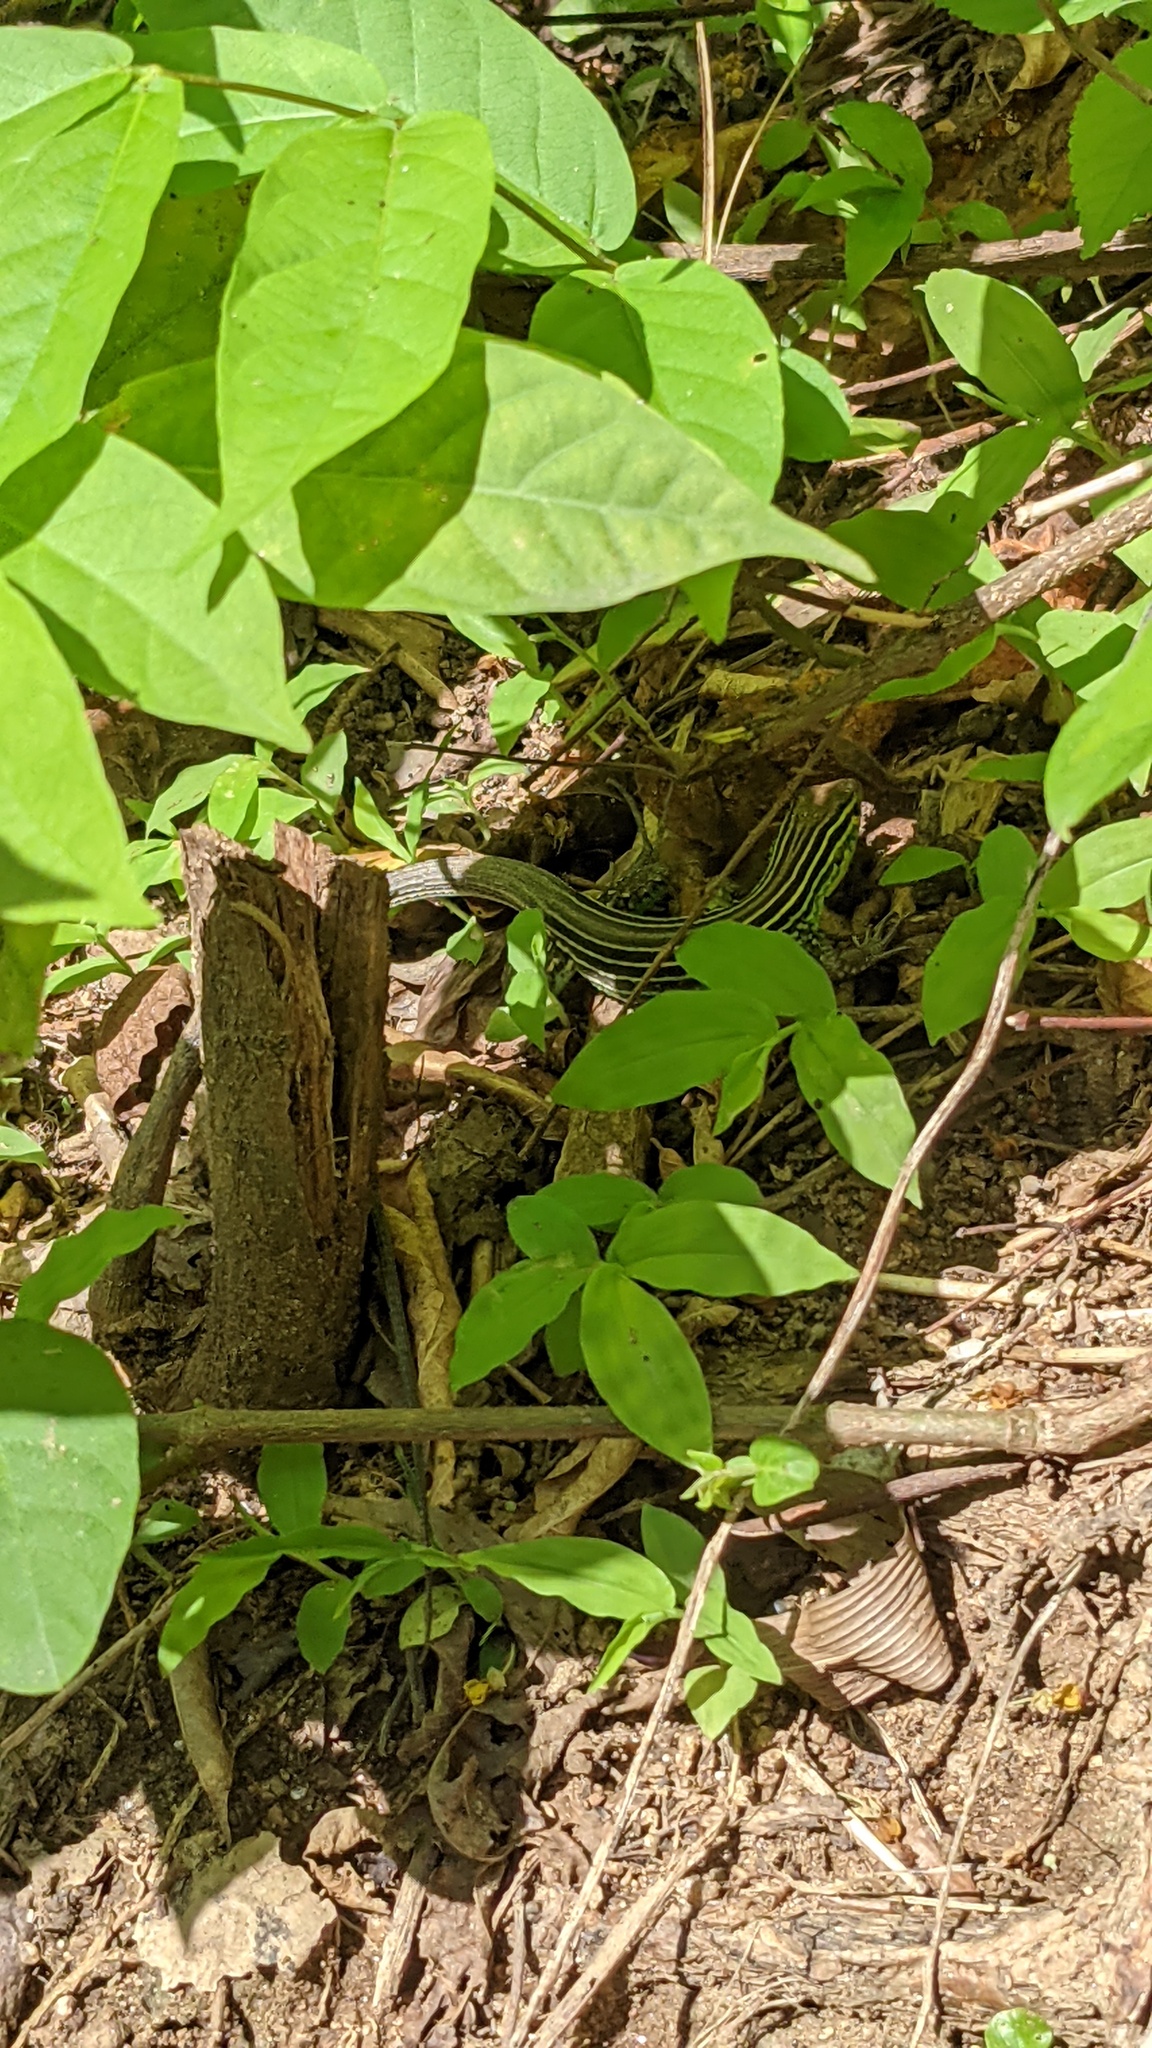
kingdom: Animalia
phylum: Chordata
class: Squamata
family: Teiidae
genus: Cnemidophorus
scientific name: Cnemidophorus gaigei
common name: Gaige’s rainbow lizard
